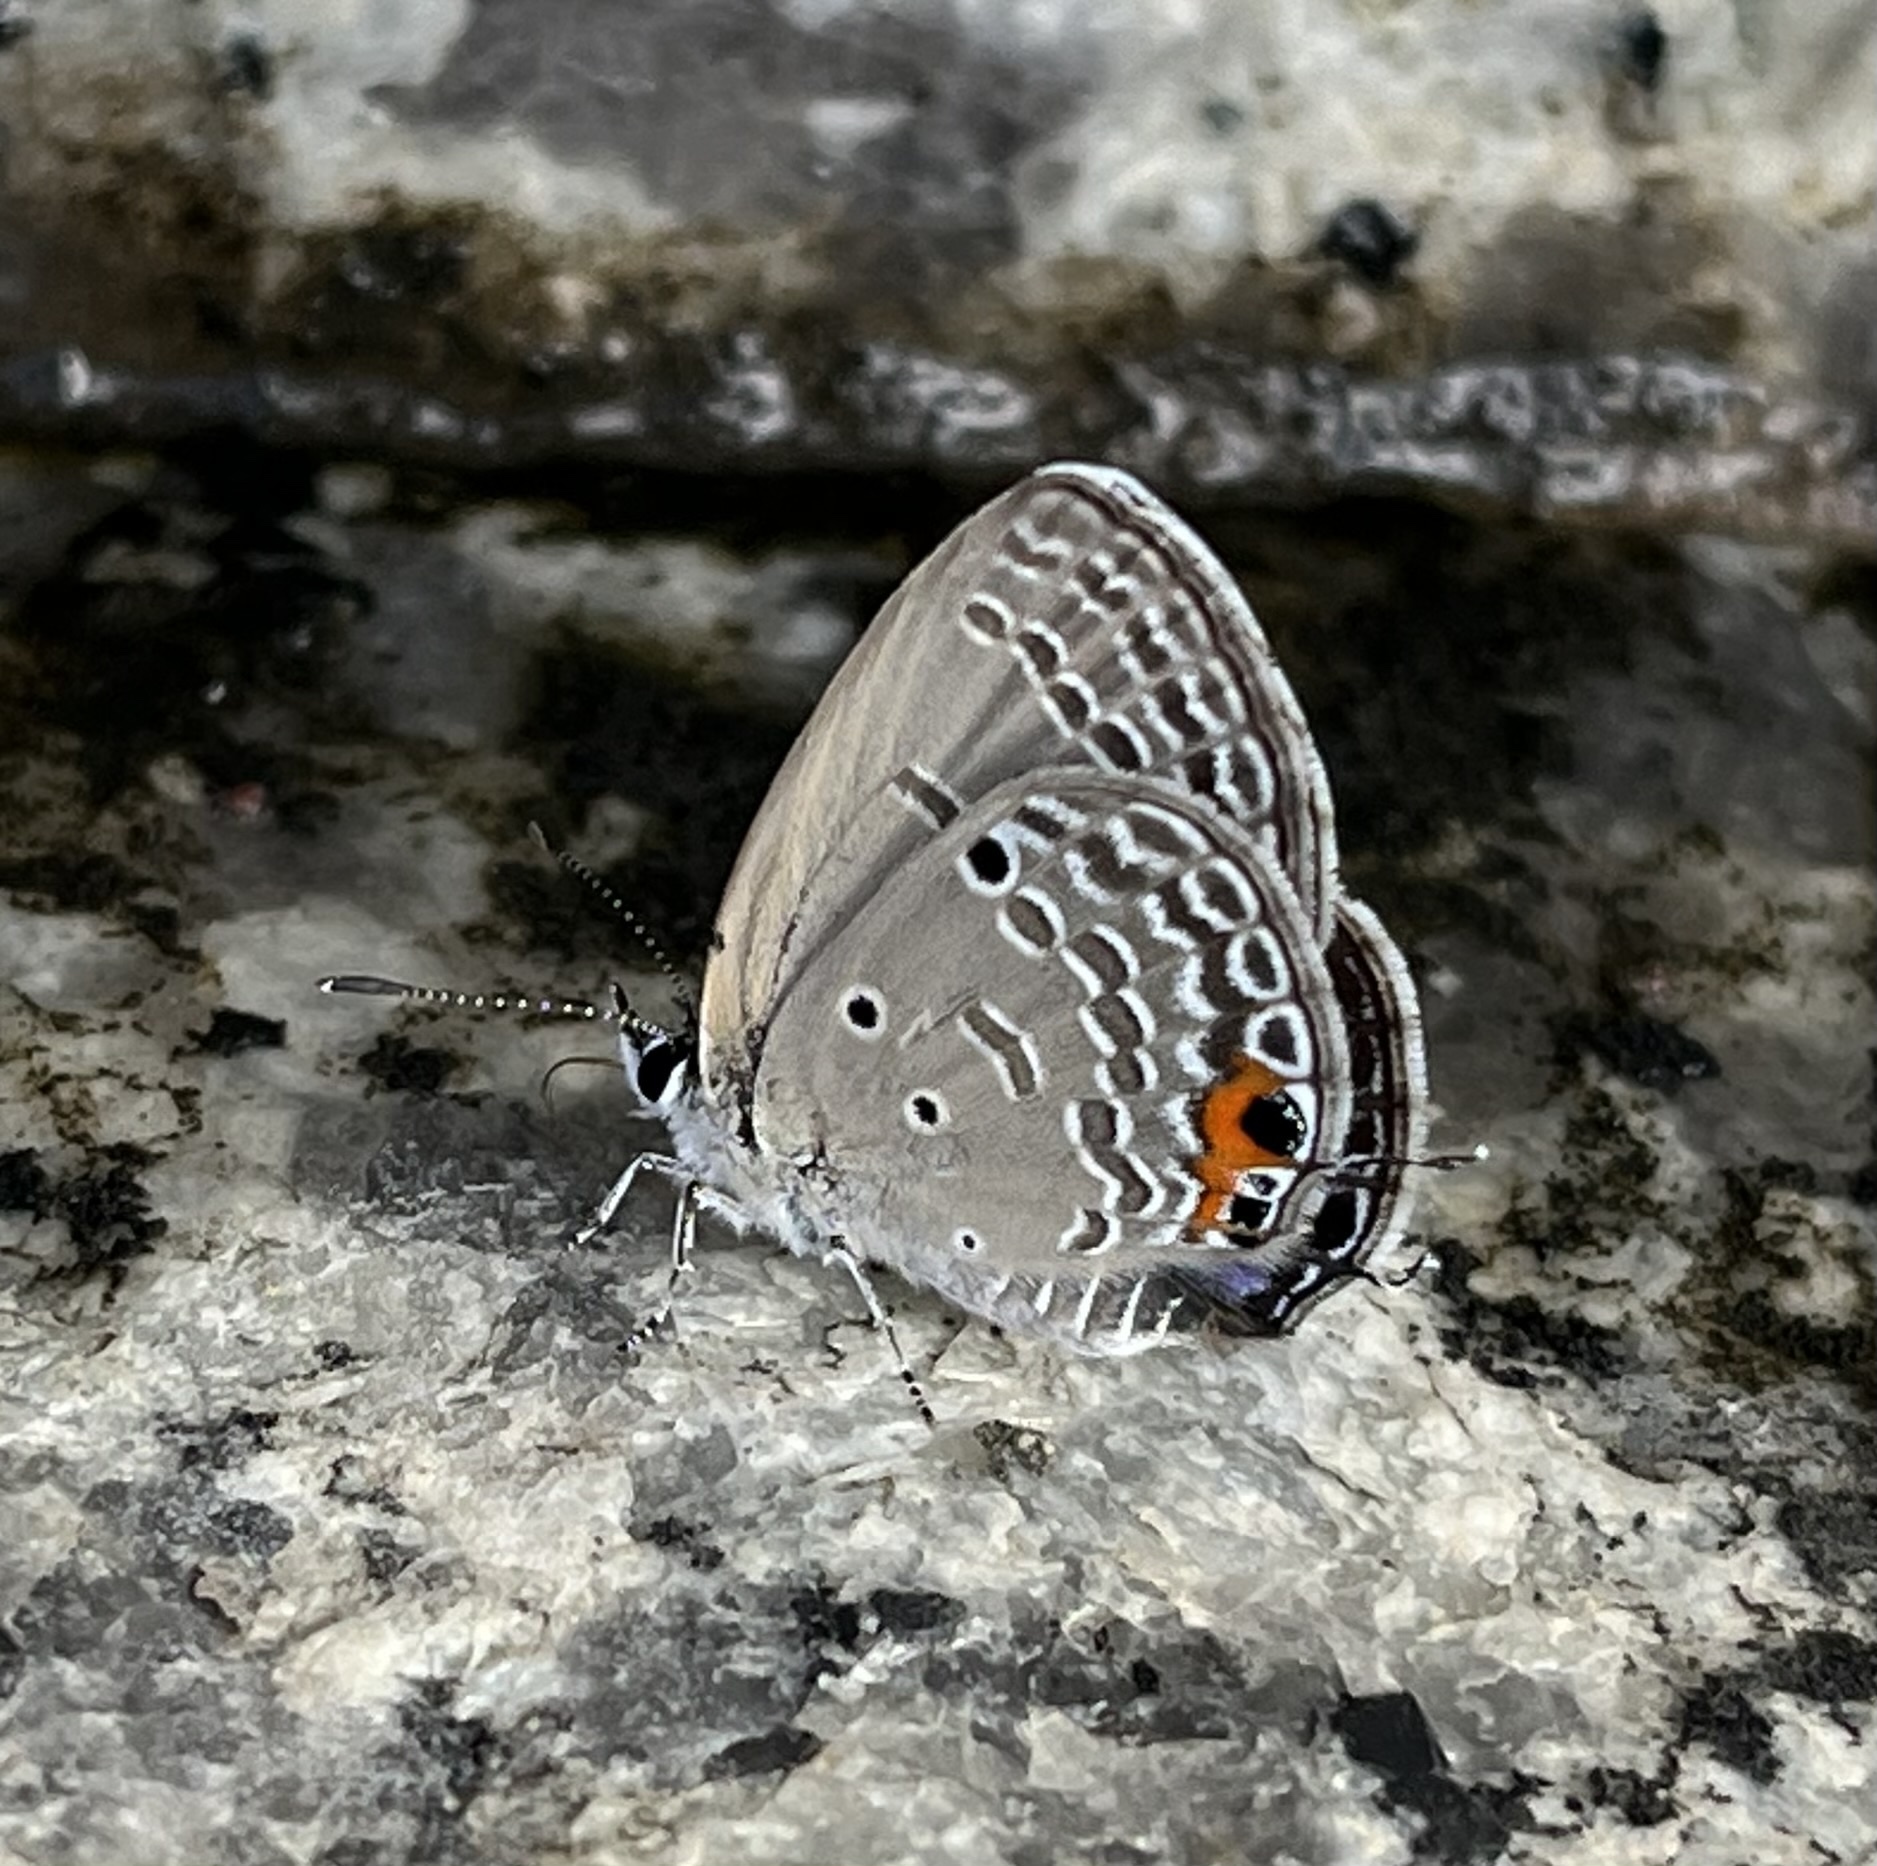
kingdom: Animalia
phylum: Arthropoda
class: Insecta
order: Lepidoptera
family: Lycaenidae
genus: Luthrodes
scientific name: Luthrodes pandava
